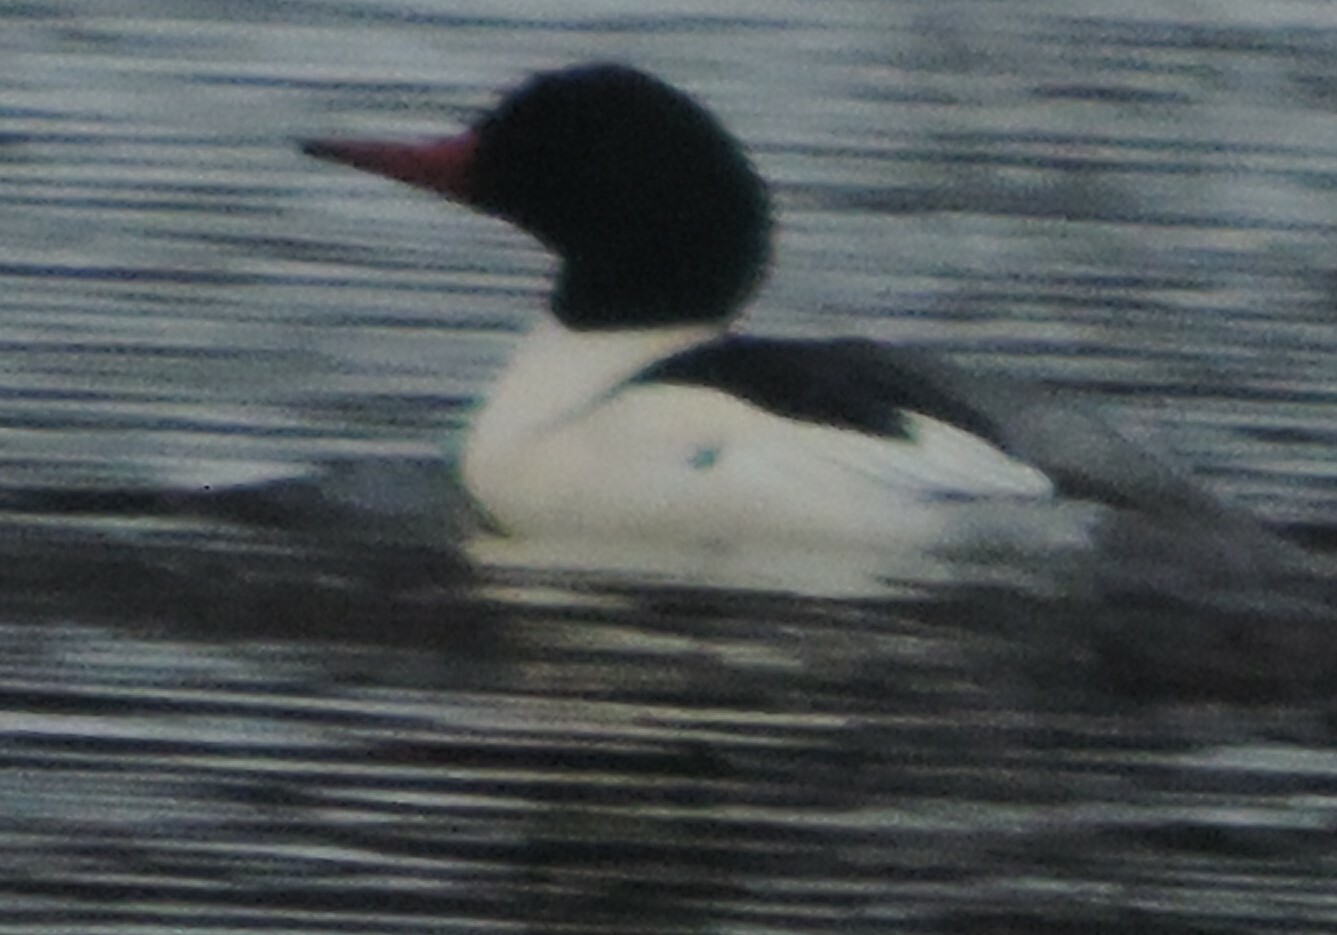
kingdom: Animalia
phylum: Chordata
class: Aves
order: Anseriformes
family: Anatidae
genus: Mergus
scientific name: Mergus merganser
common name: Common merganser
